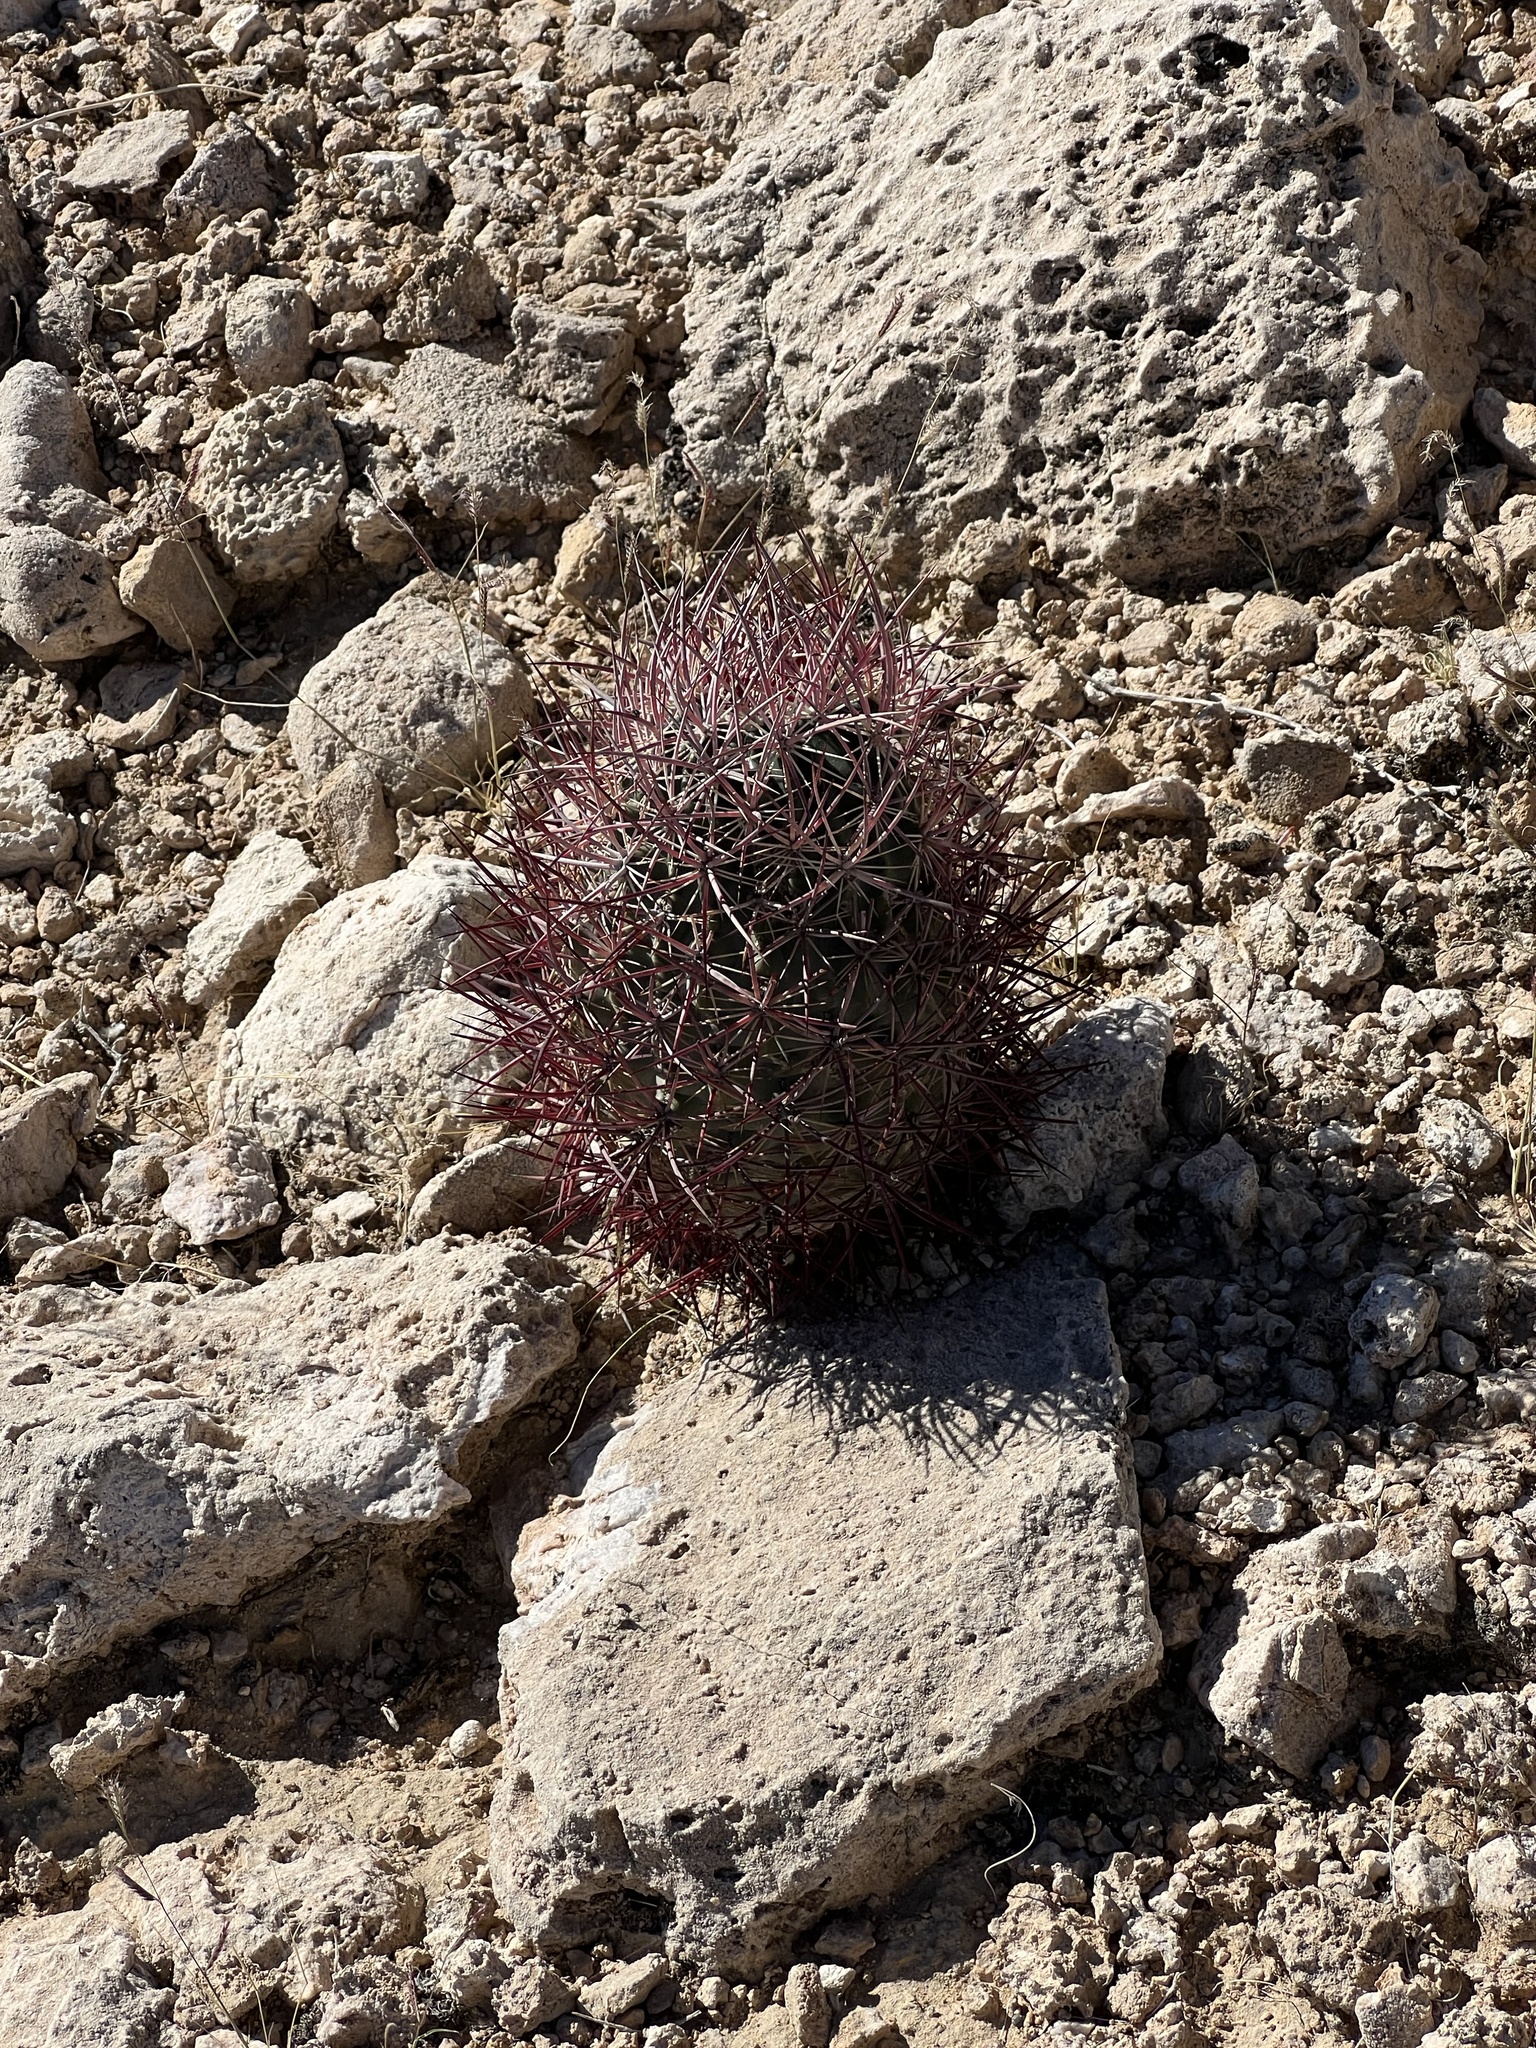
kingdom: Plantae
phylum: Tracheophyta
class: Magnoliopsida
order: Caryophyllales
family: Cactaceae
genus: Sclerocactus
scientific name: Sclerocactus johnsonii
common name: Eight-spine fishhook cactus
